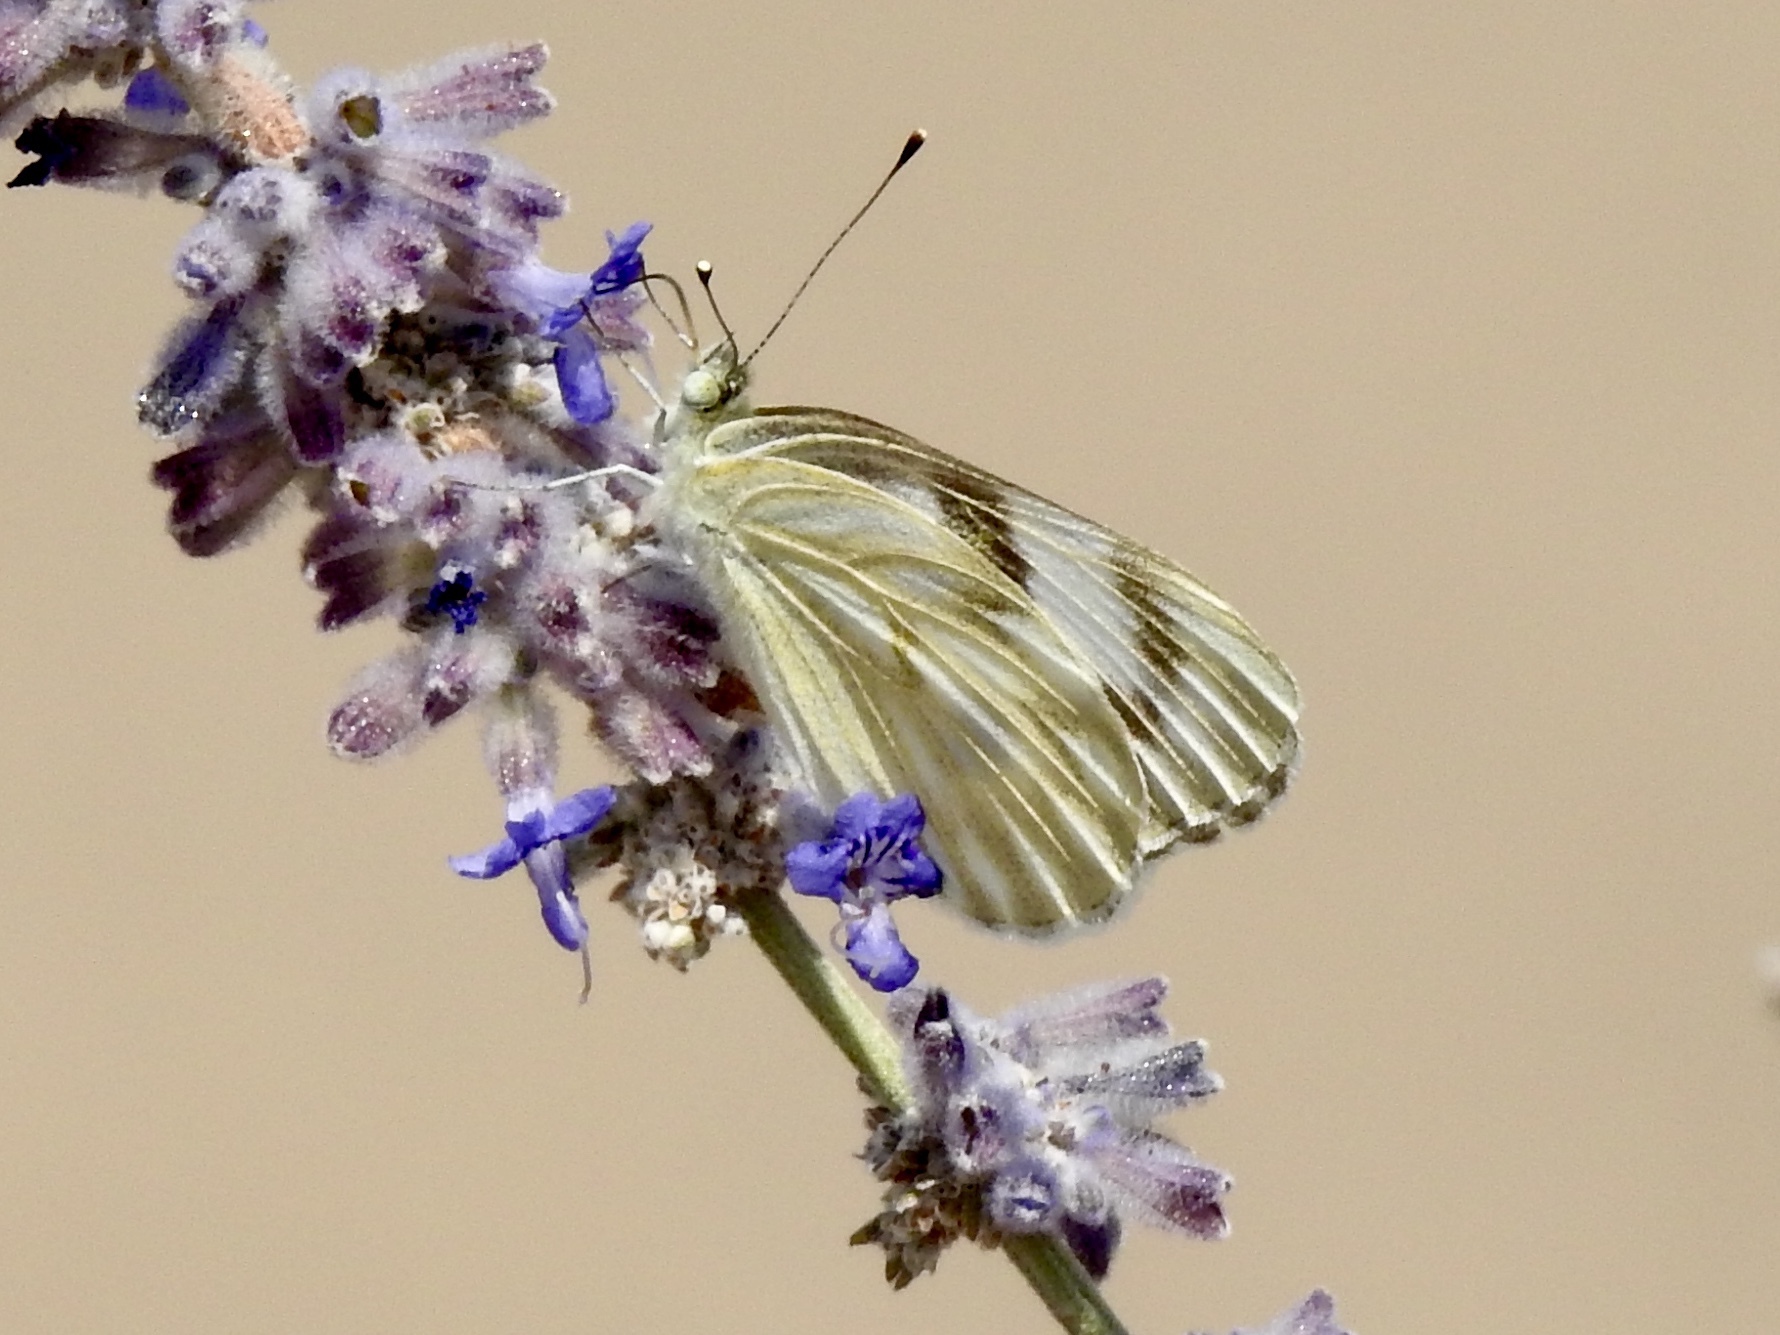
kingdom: Animalia
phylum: Arthropoda
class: Insecta
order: Lepidoptera
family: Pieridae
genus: Pontia
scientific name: Pontia protodice
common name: Checkered white
